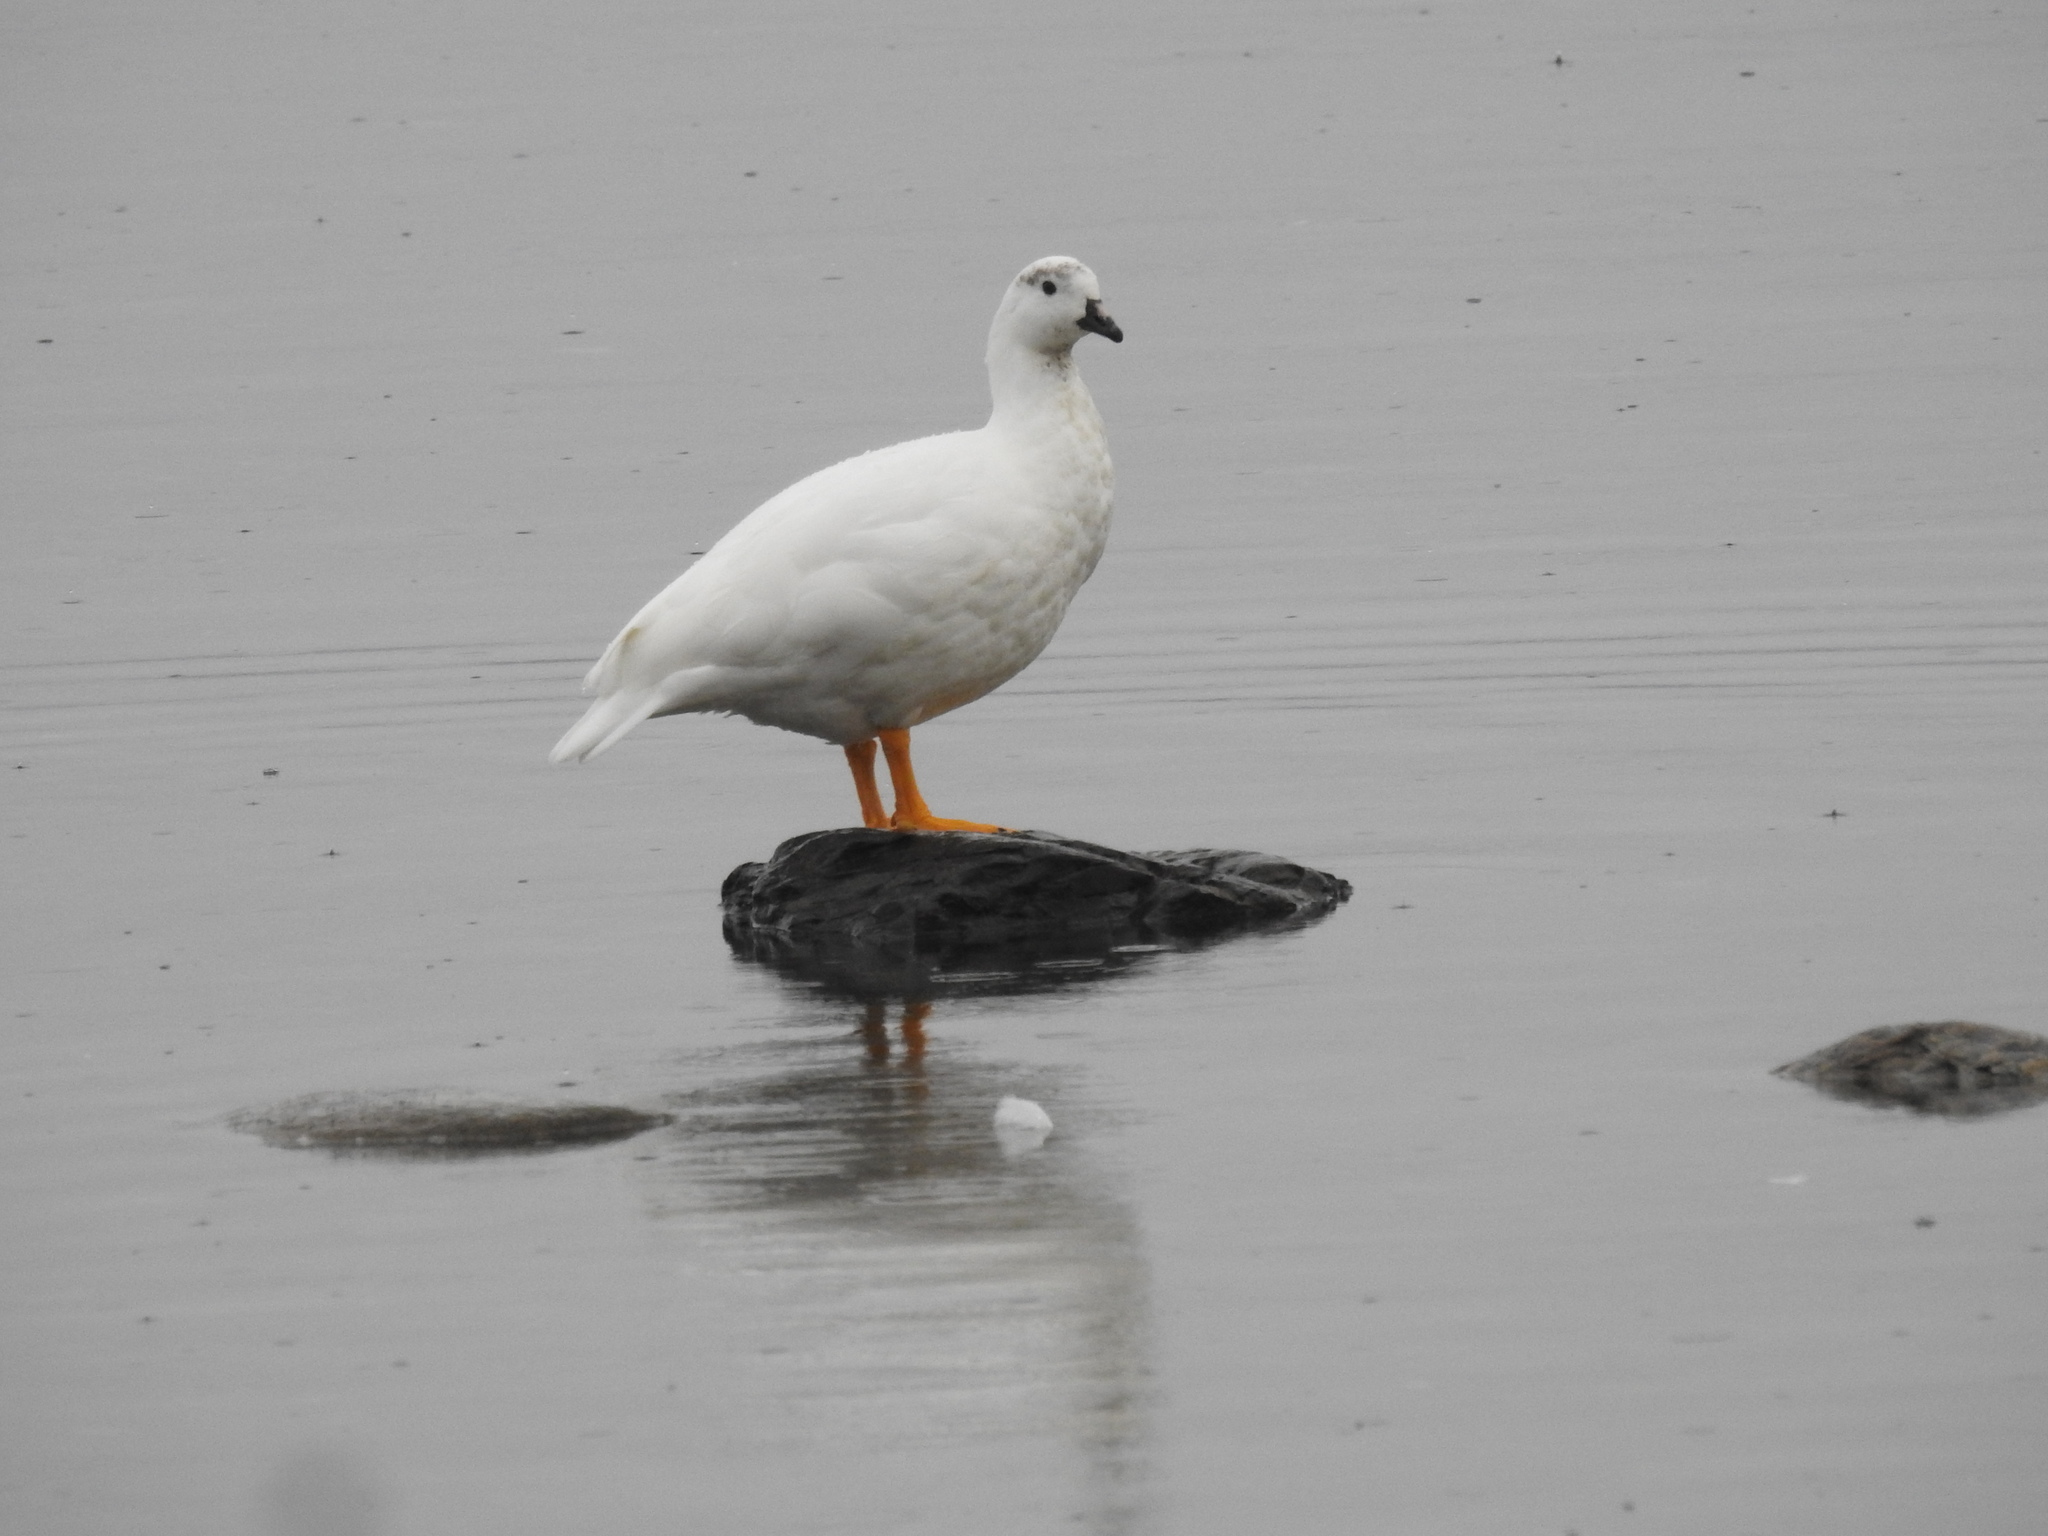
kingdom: Animalia
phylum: Chordata
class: Aves
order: Anseriformes
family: Anatidae
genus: Chloephaga
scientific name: Chloephaga hybrida
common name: Kelp goose
